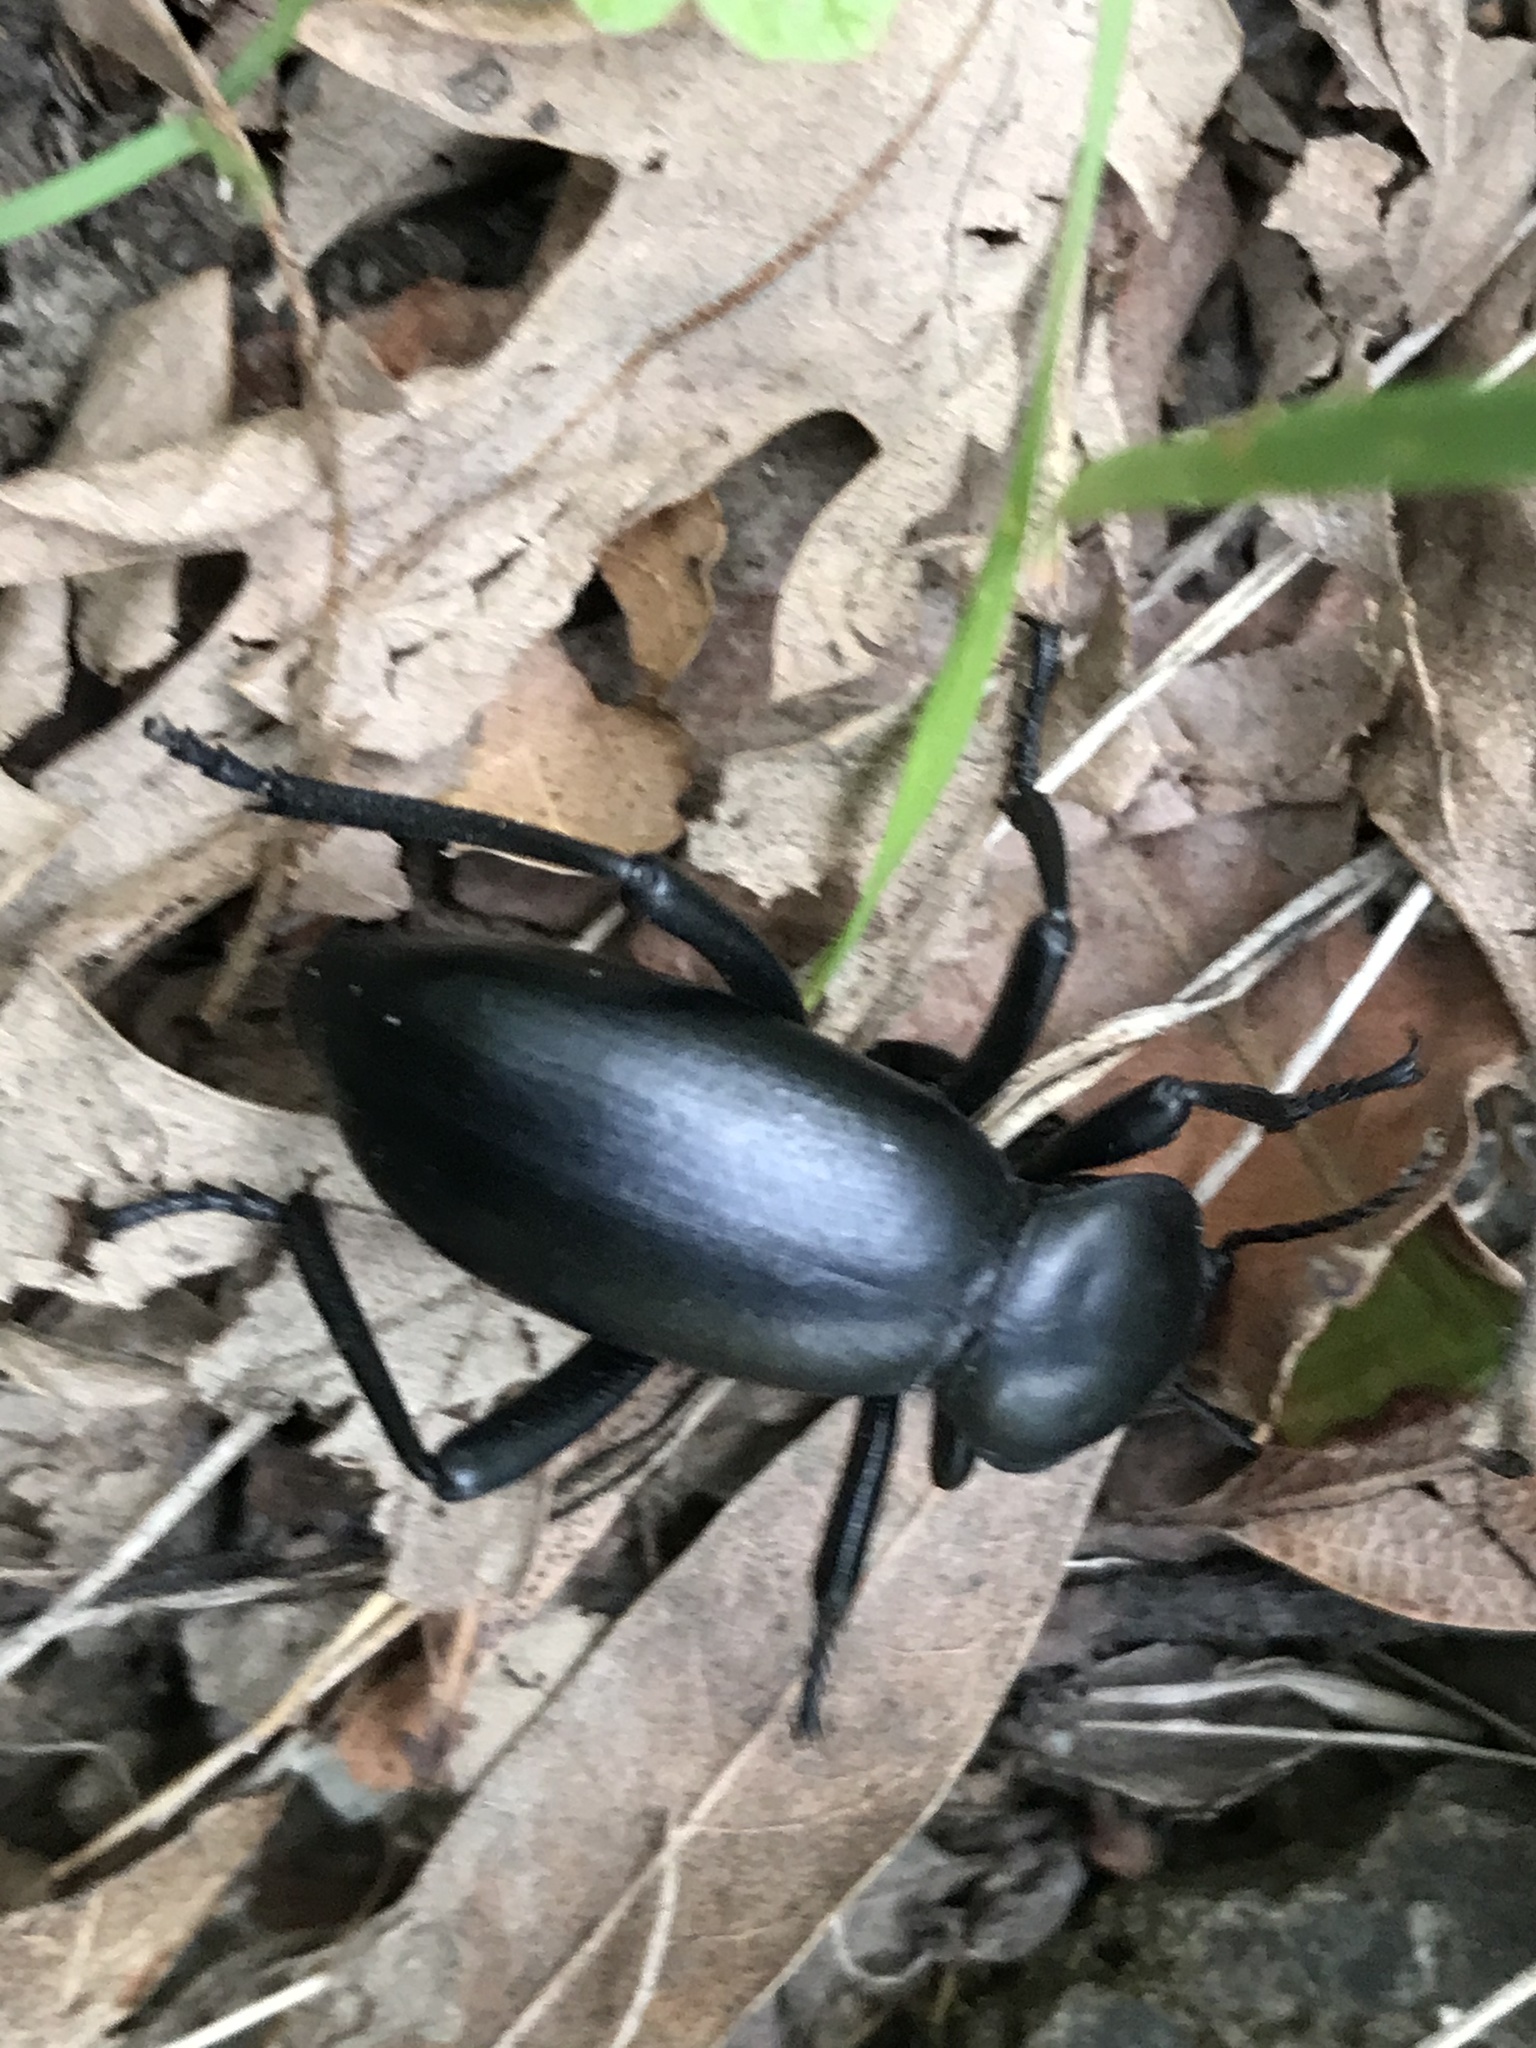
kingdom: Animalia
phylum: Arthropoda
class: Insecta
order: Coleoptera
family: Tenebrionidae
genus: Eleodes
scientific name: Eleodes grandicollis
